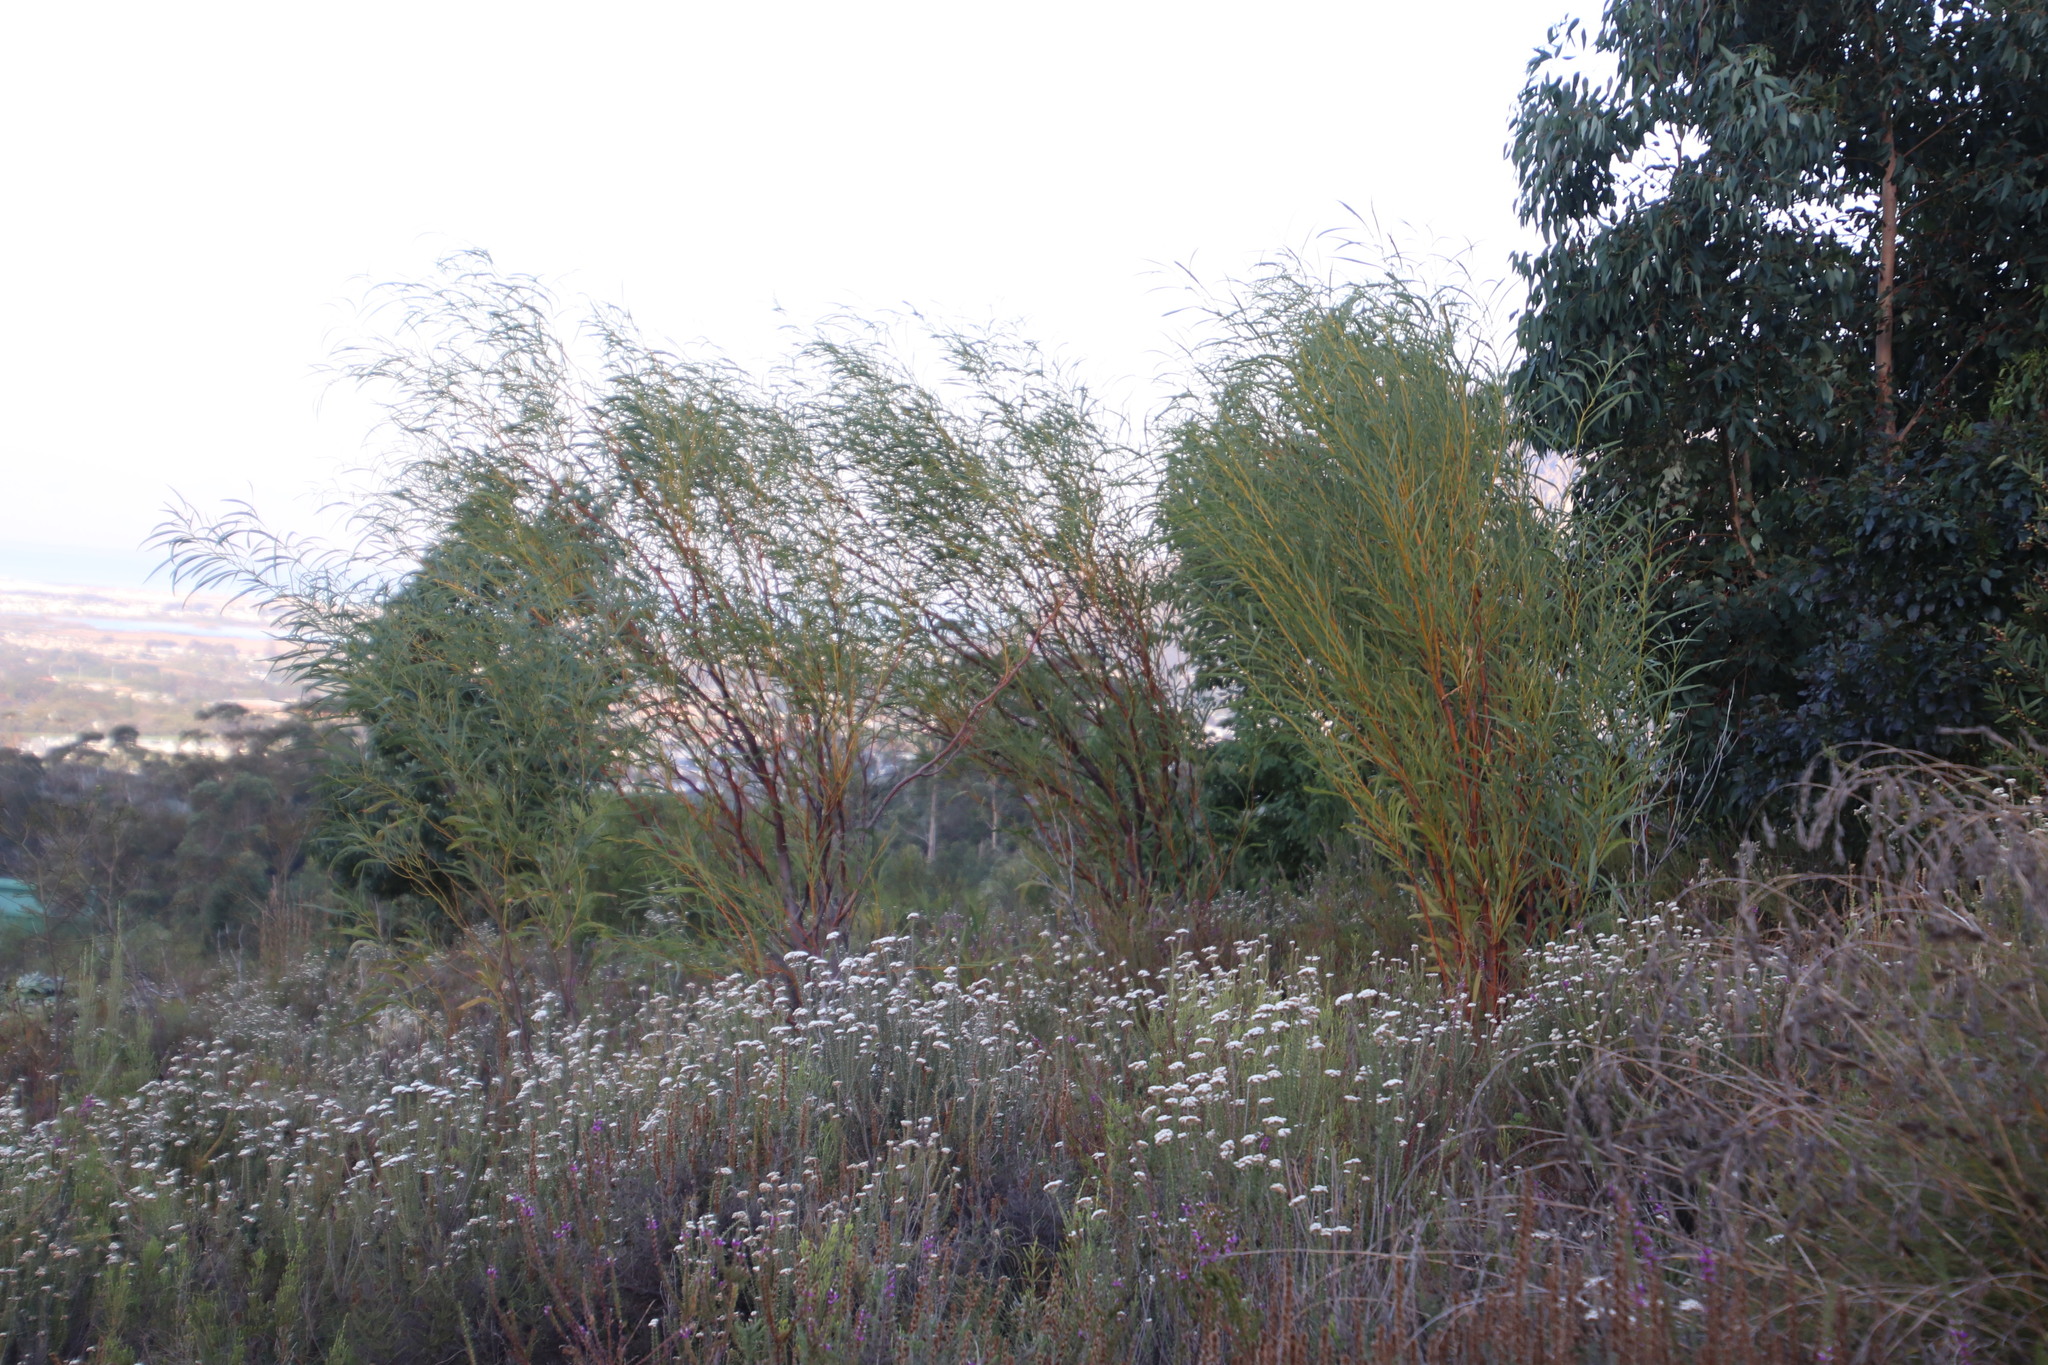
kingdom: Plantae
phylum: Tracheophyta
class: Magnoliopsida
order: Fabales
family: Fabaceae
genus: Acacia
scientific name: Acacia saligna
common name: Orange wattle
